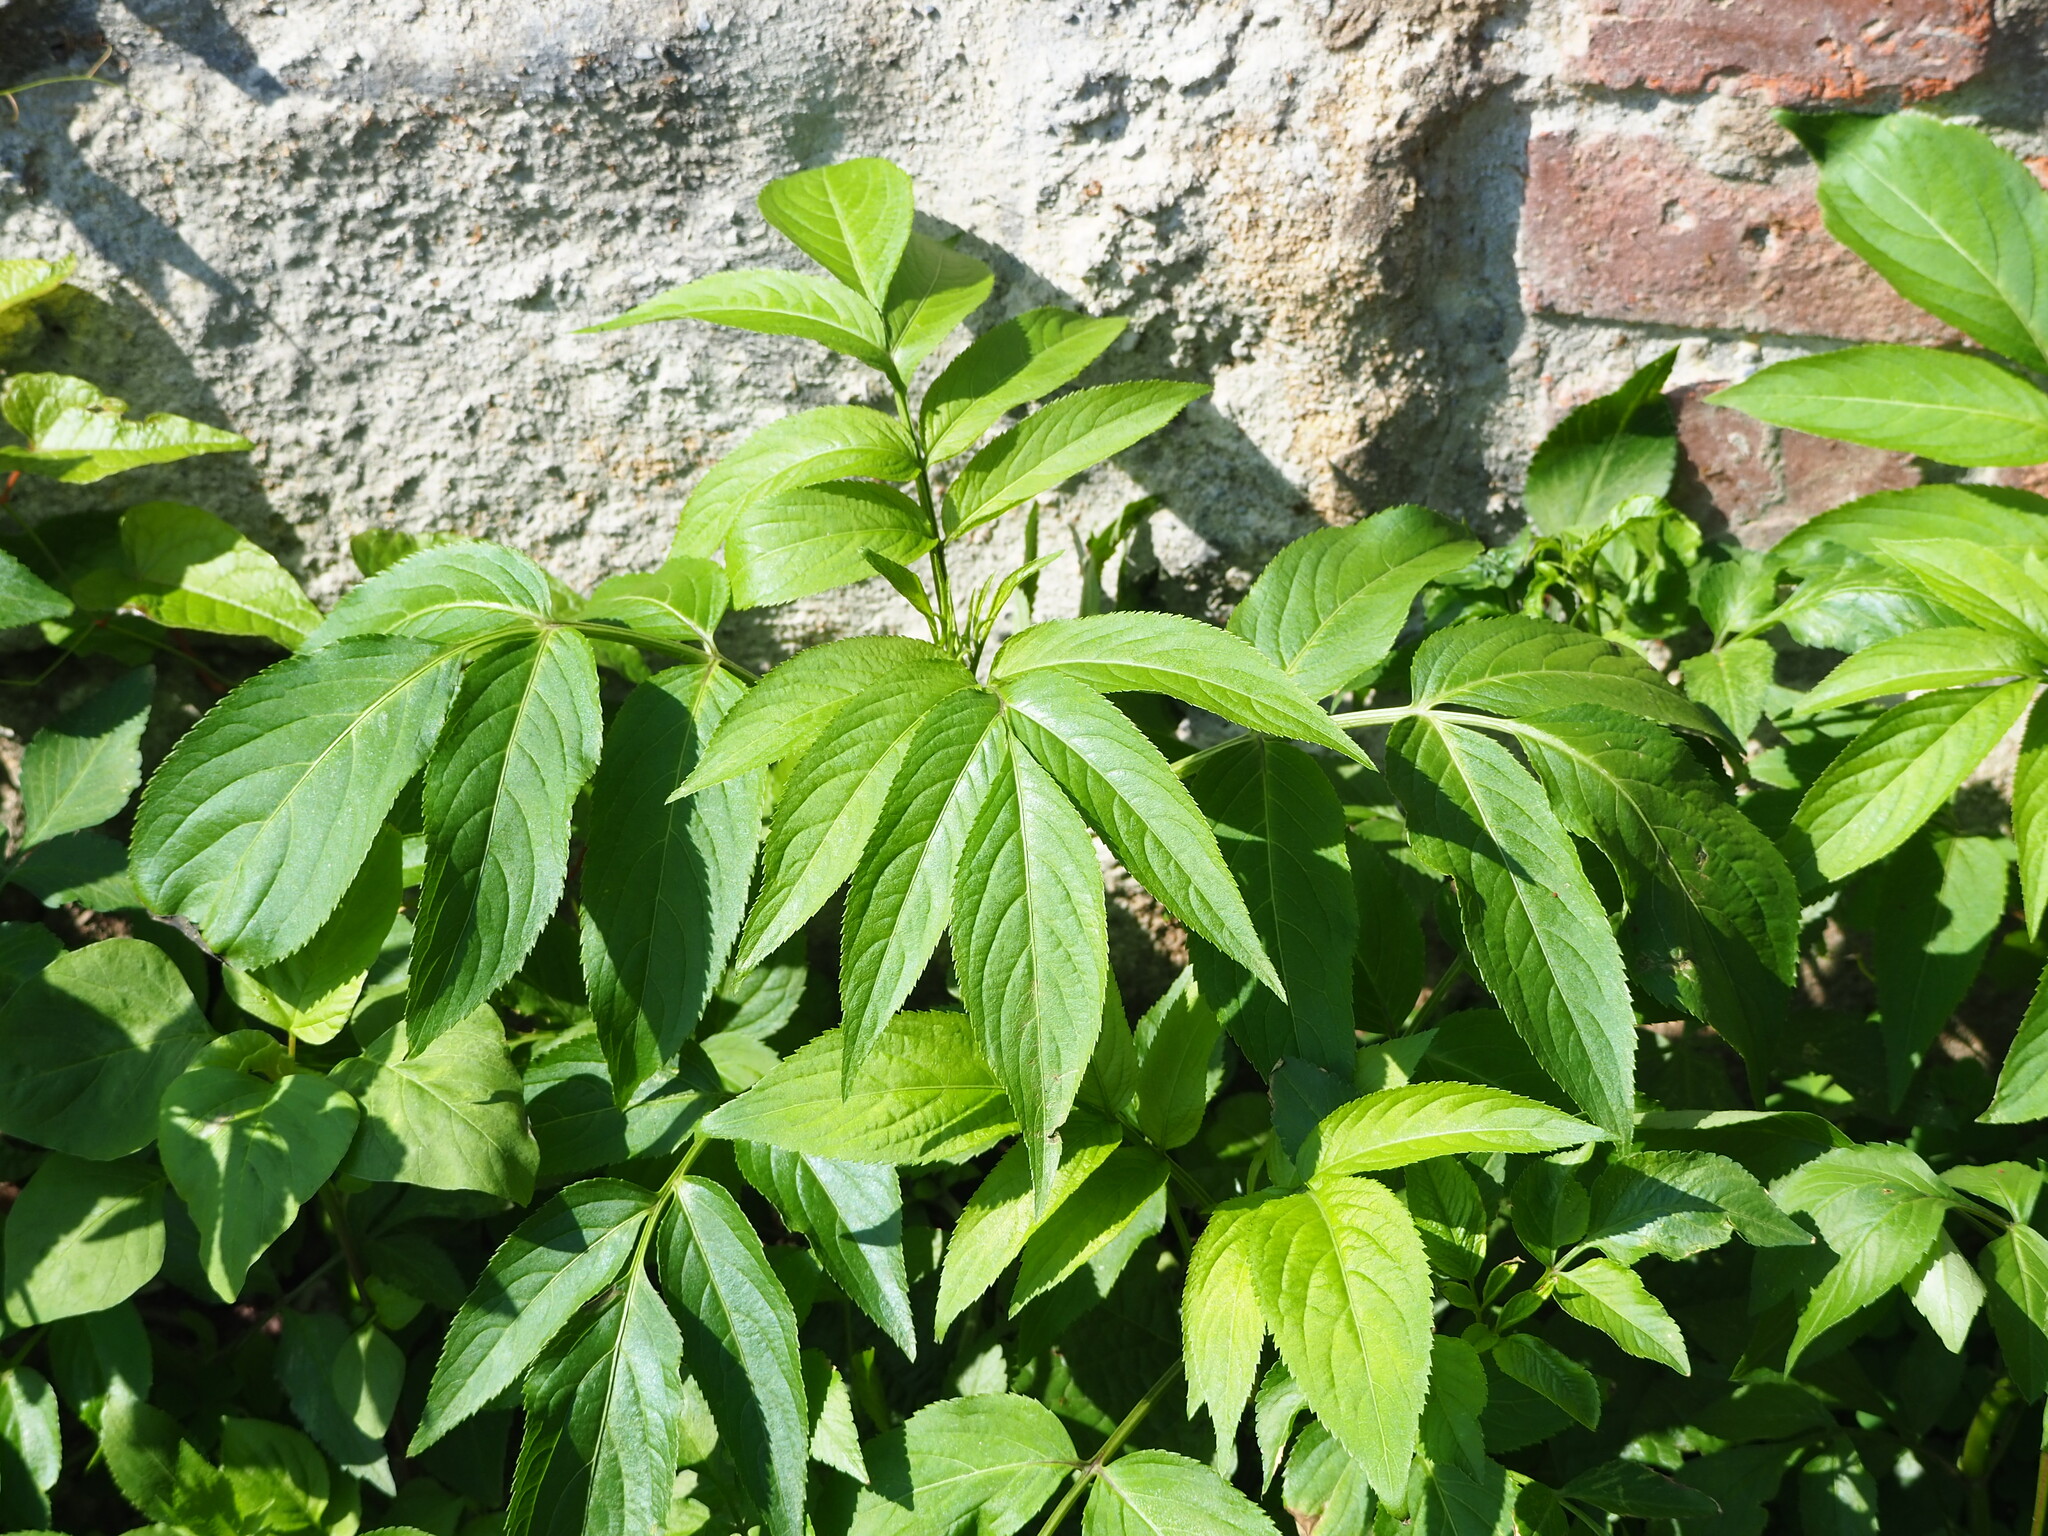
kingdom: Plantae
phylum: Tracheophyta
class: Magnoliopsida
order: Dipsacales
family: Viburnaceae
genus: Sambucus
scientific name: Sambucus javanica
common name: Chinese elder
